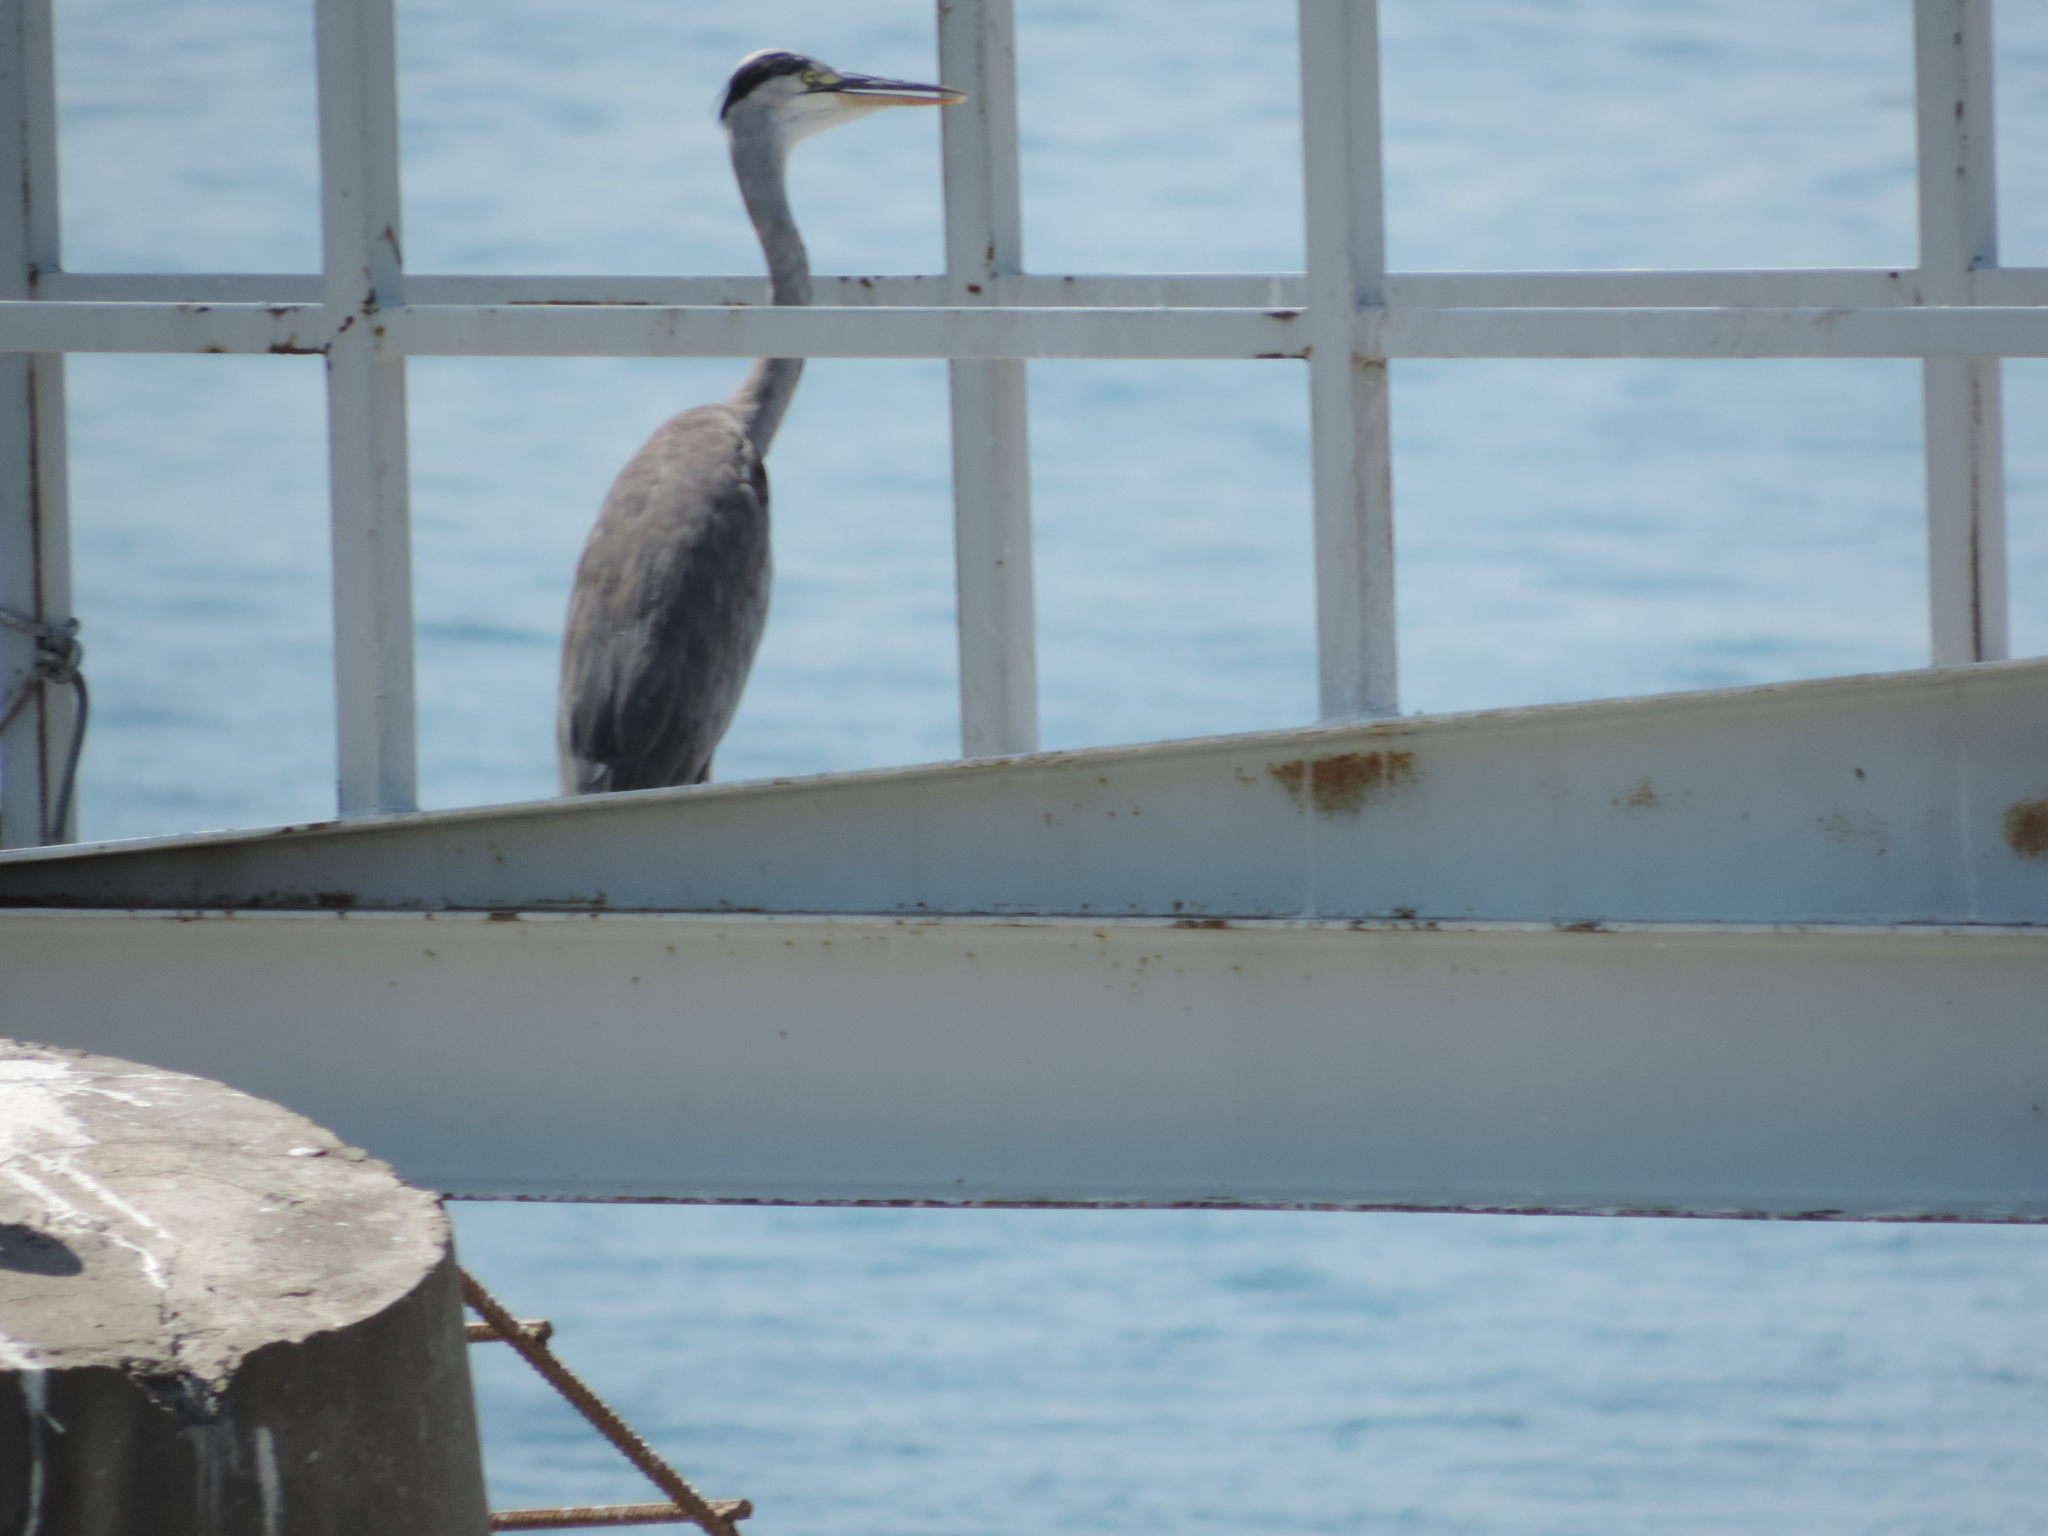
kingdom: Animalia
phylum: Chordata
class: Aves
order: Pelecaniformes
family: Ardeidae
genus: Ardea
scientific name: Ardea cinerea
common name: Grey heron
